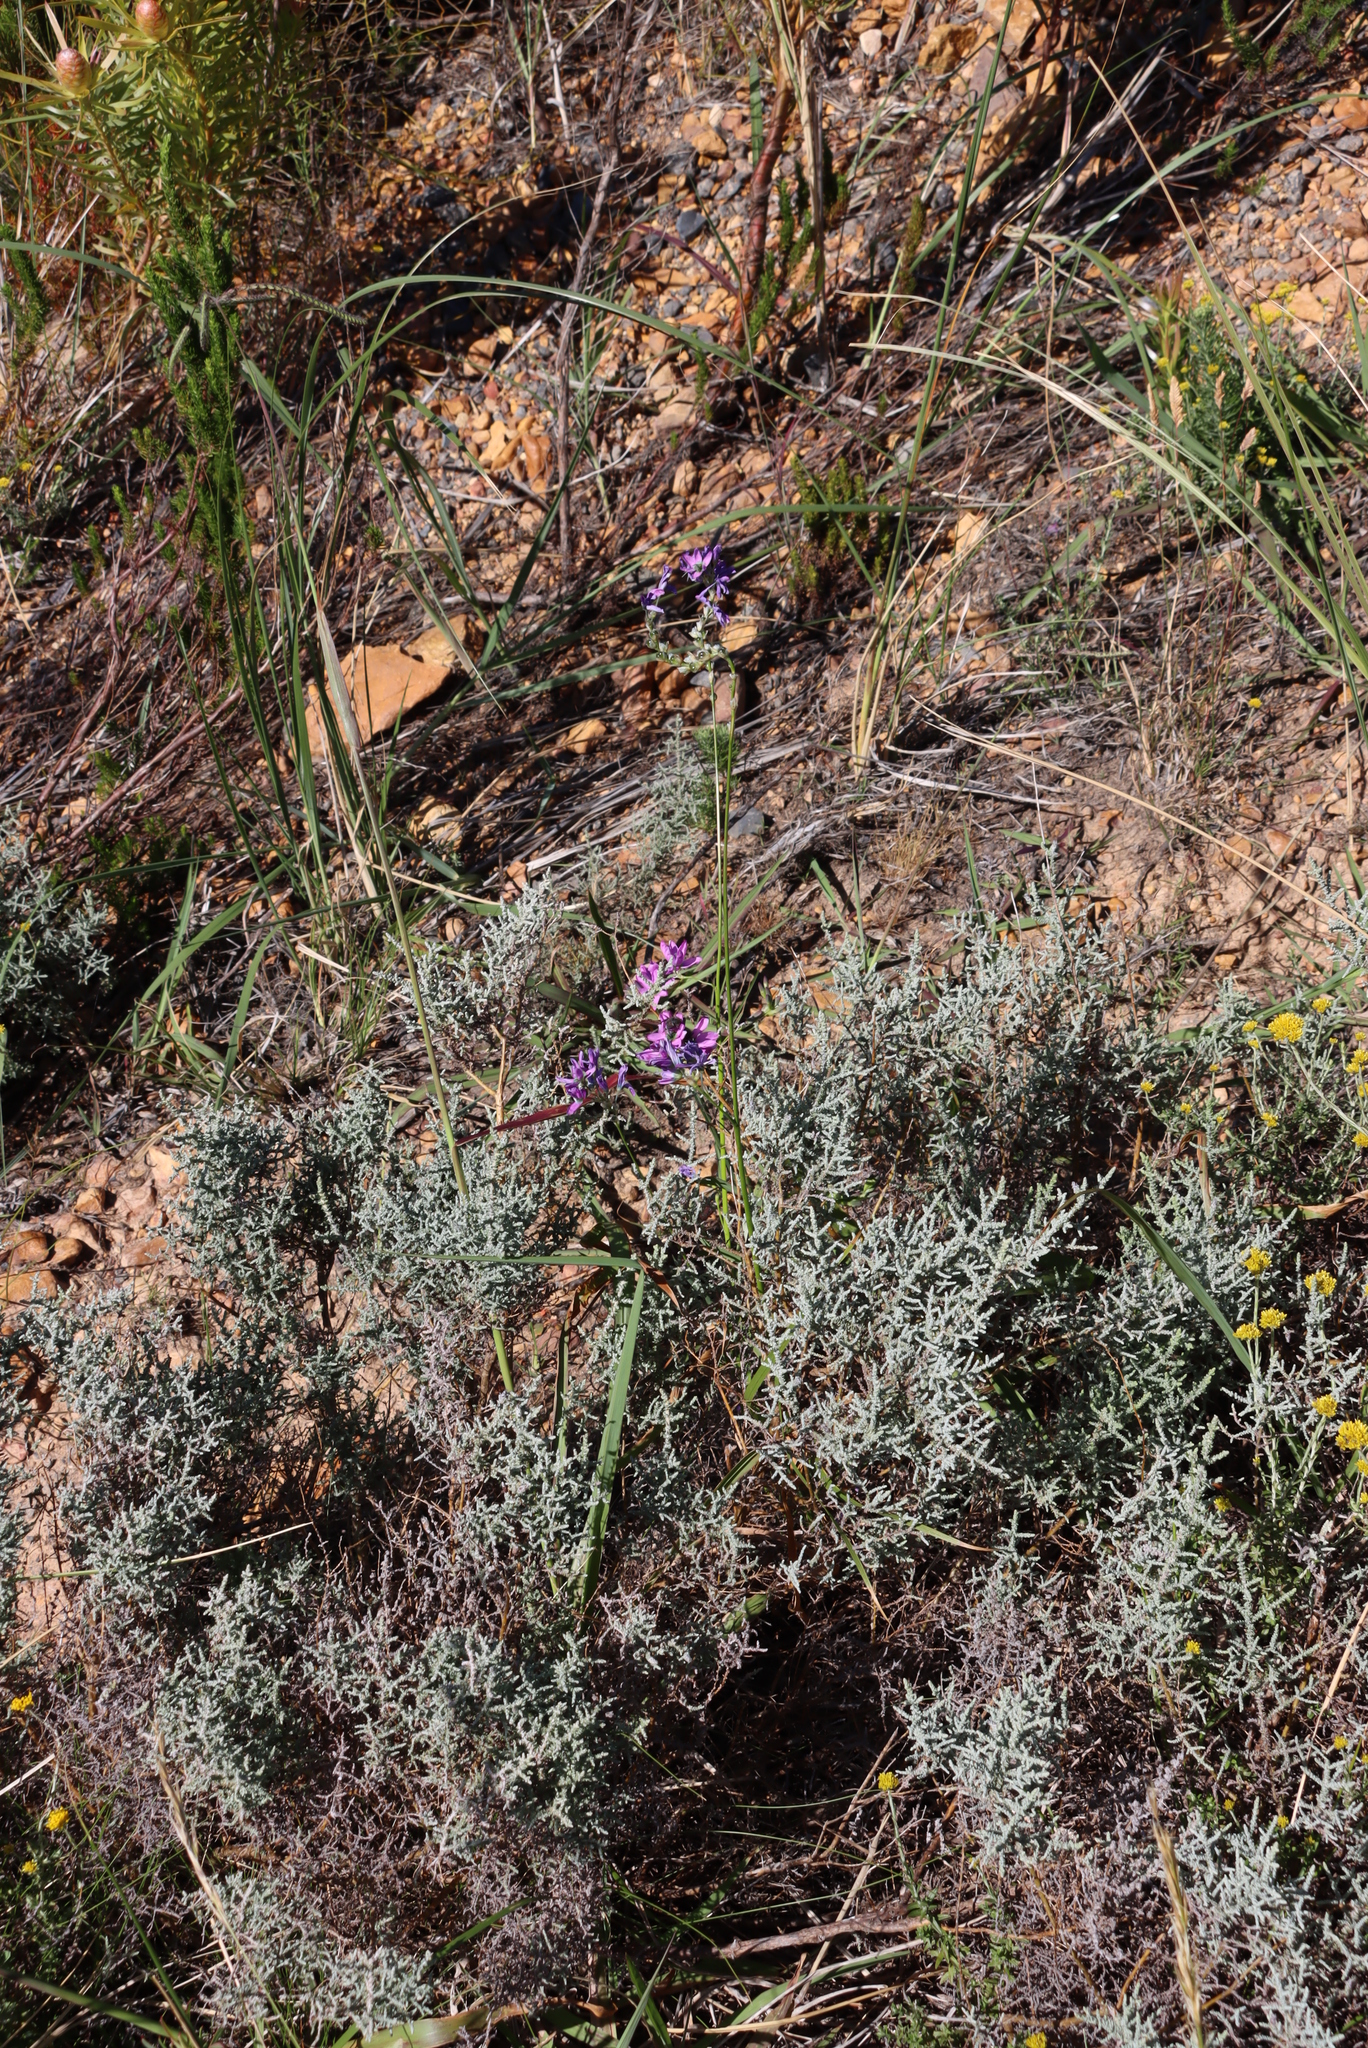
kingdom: Plantae
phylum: Tracheophyta
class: Magnoliopsida
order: Asterales
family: Asteraceae
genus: Seriphium
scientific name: Seriphium plumosum
